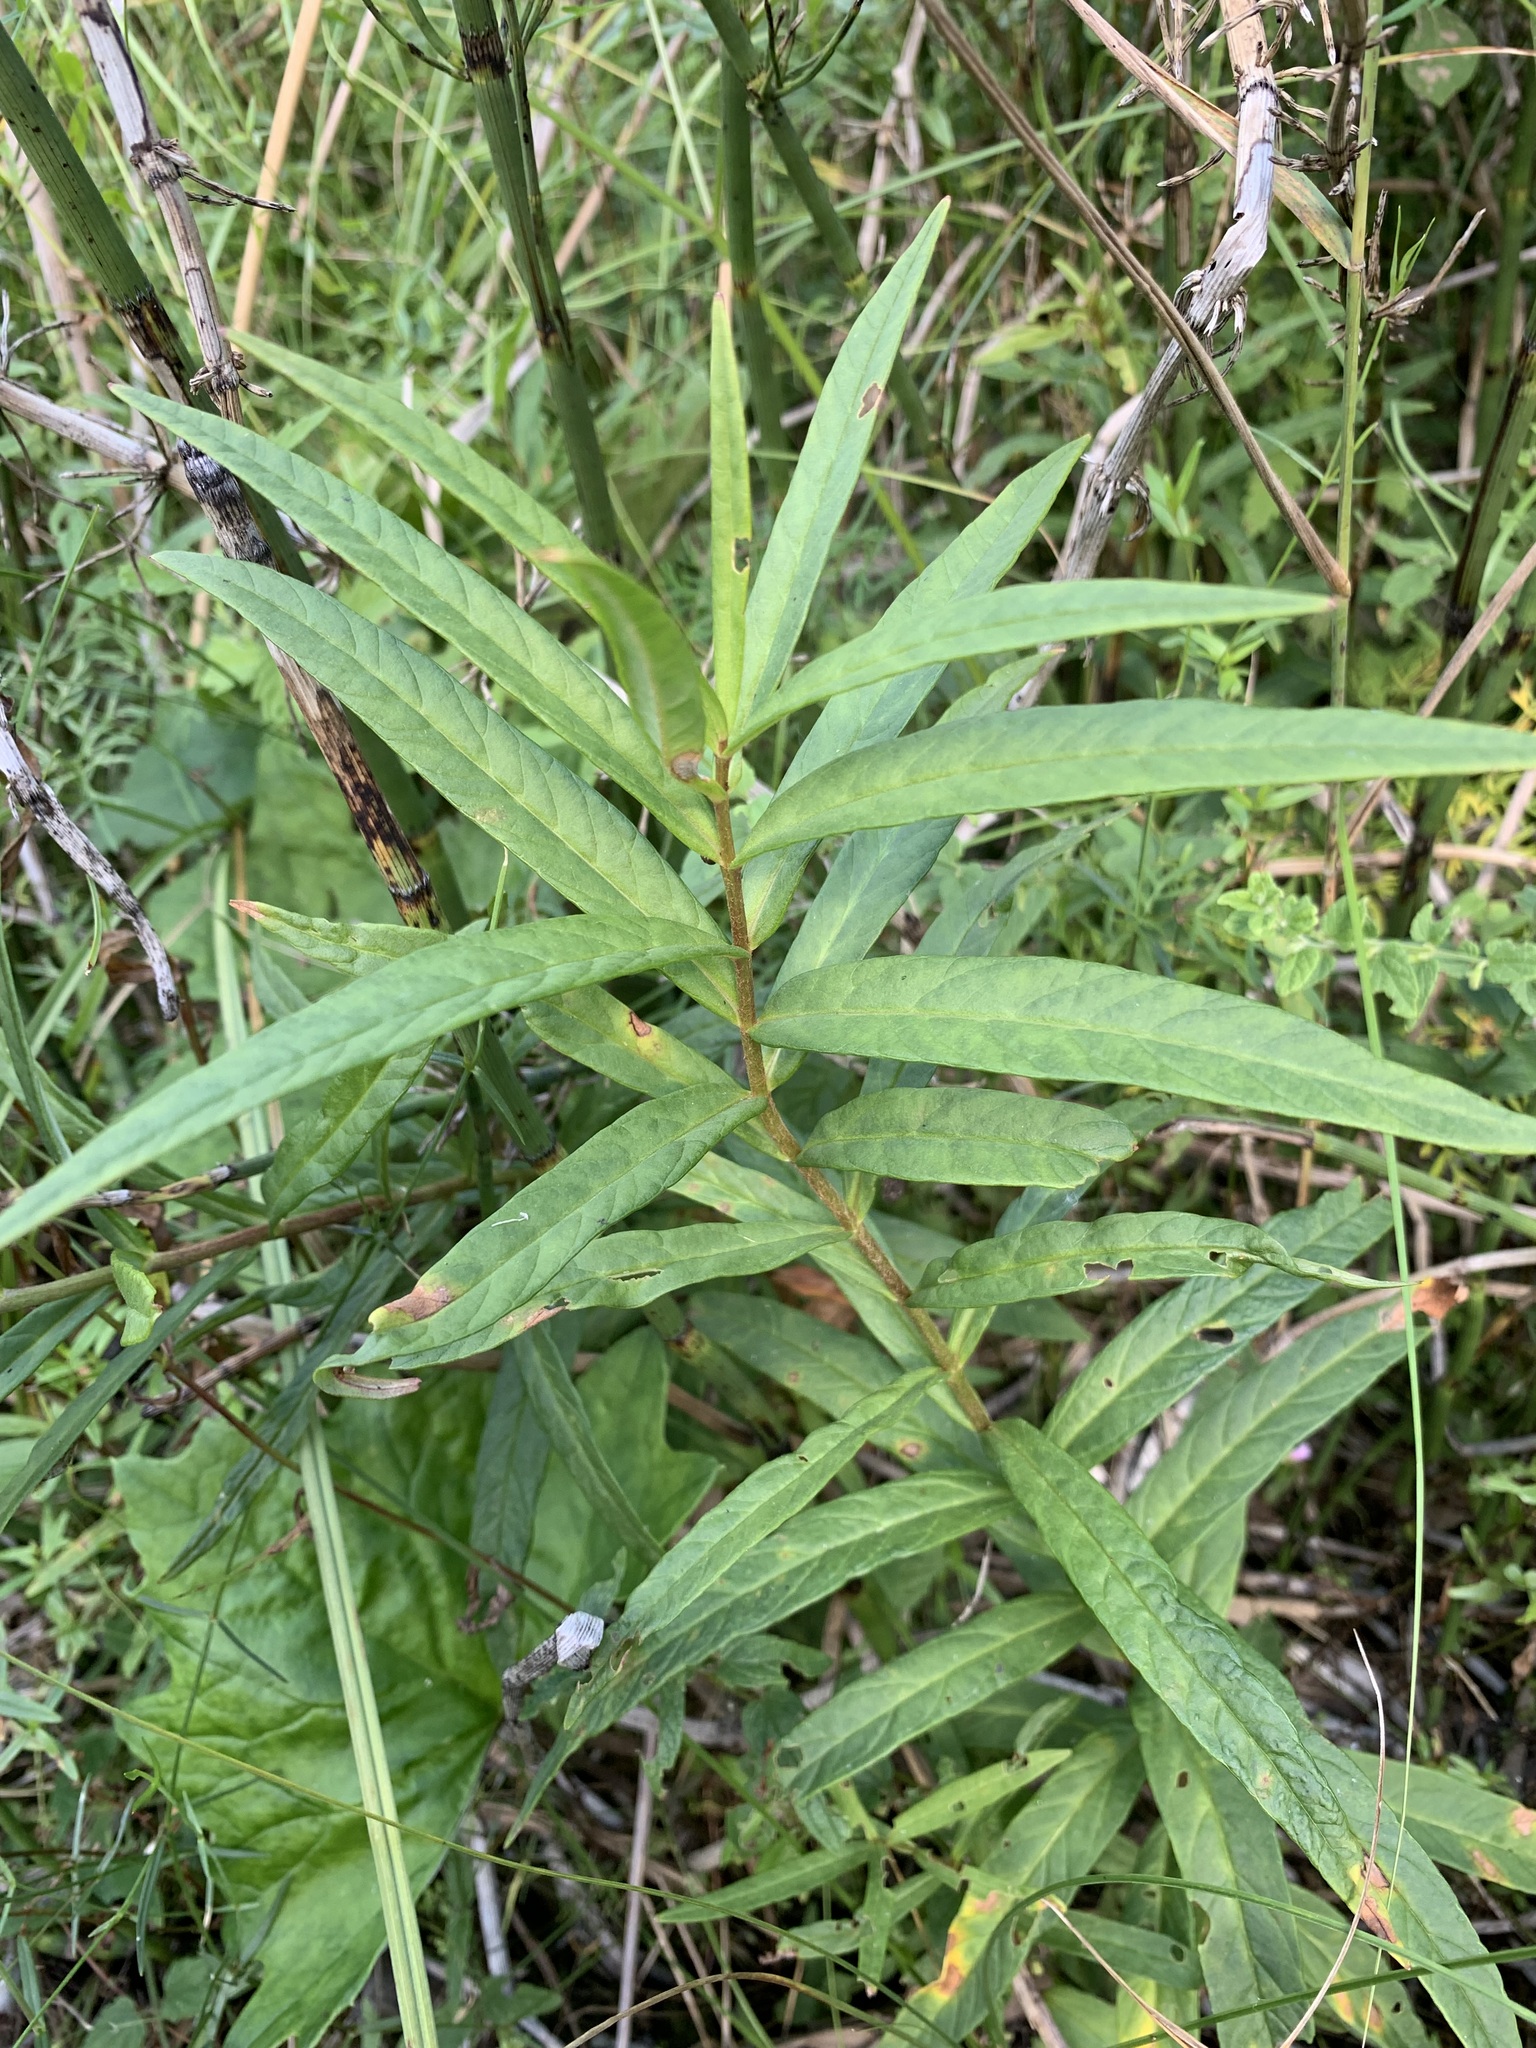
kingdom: Plantae
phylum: Tracheophyta
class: Magnoliopsida
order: Ericales
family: Primulaceae
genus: Lysimachia
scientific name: Lysimachia thyrsiflora
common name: Tufted loosestrife
